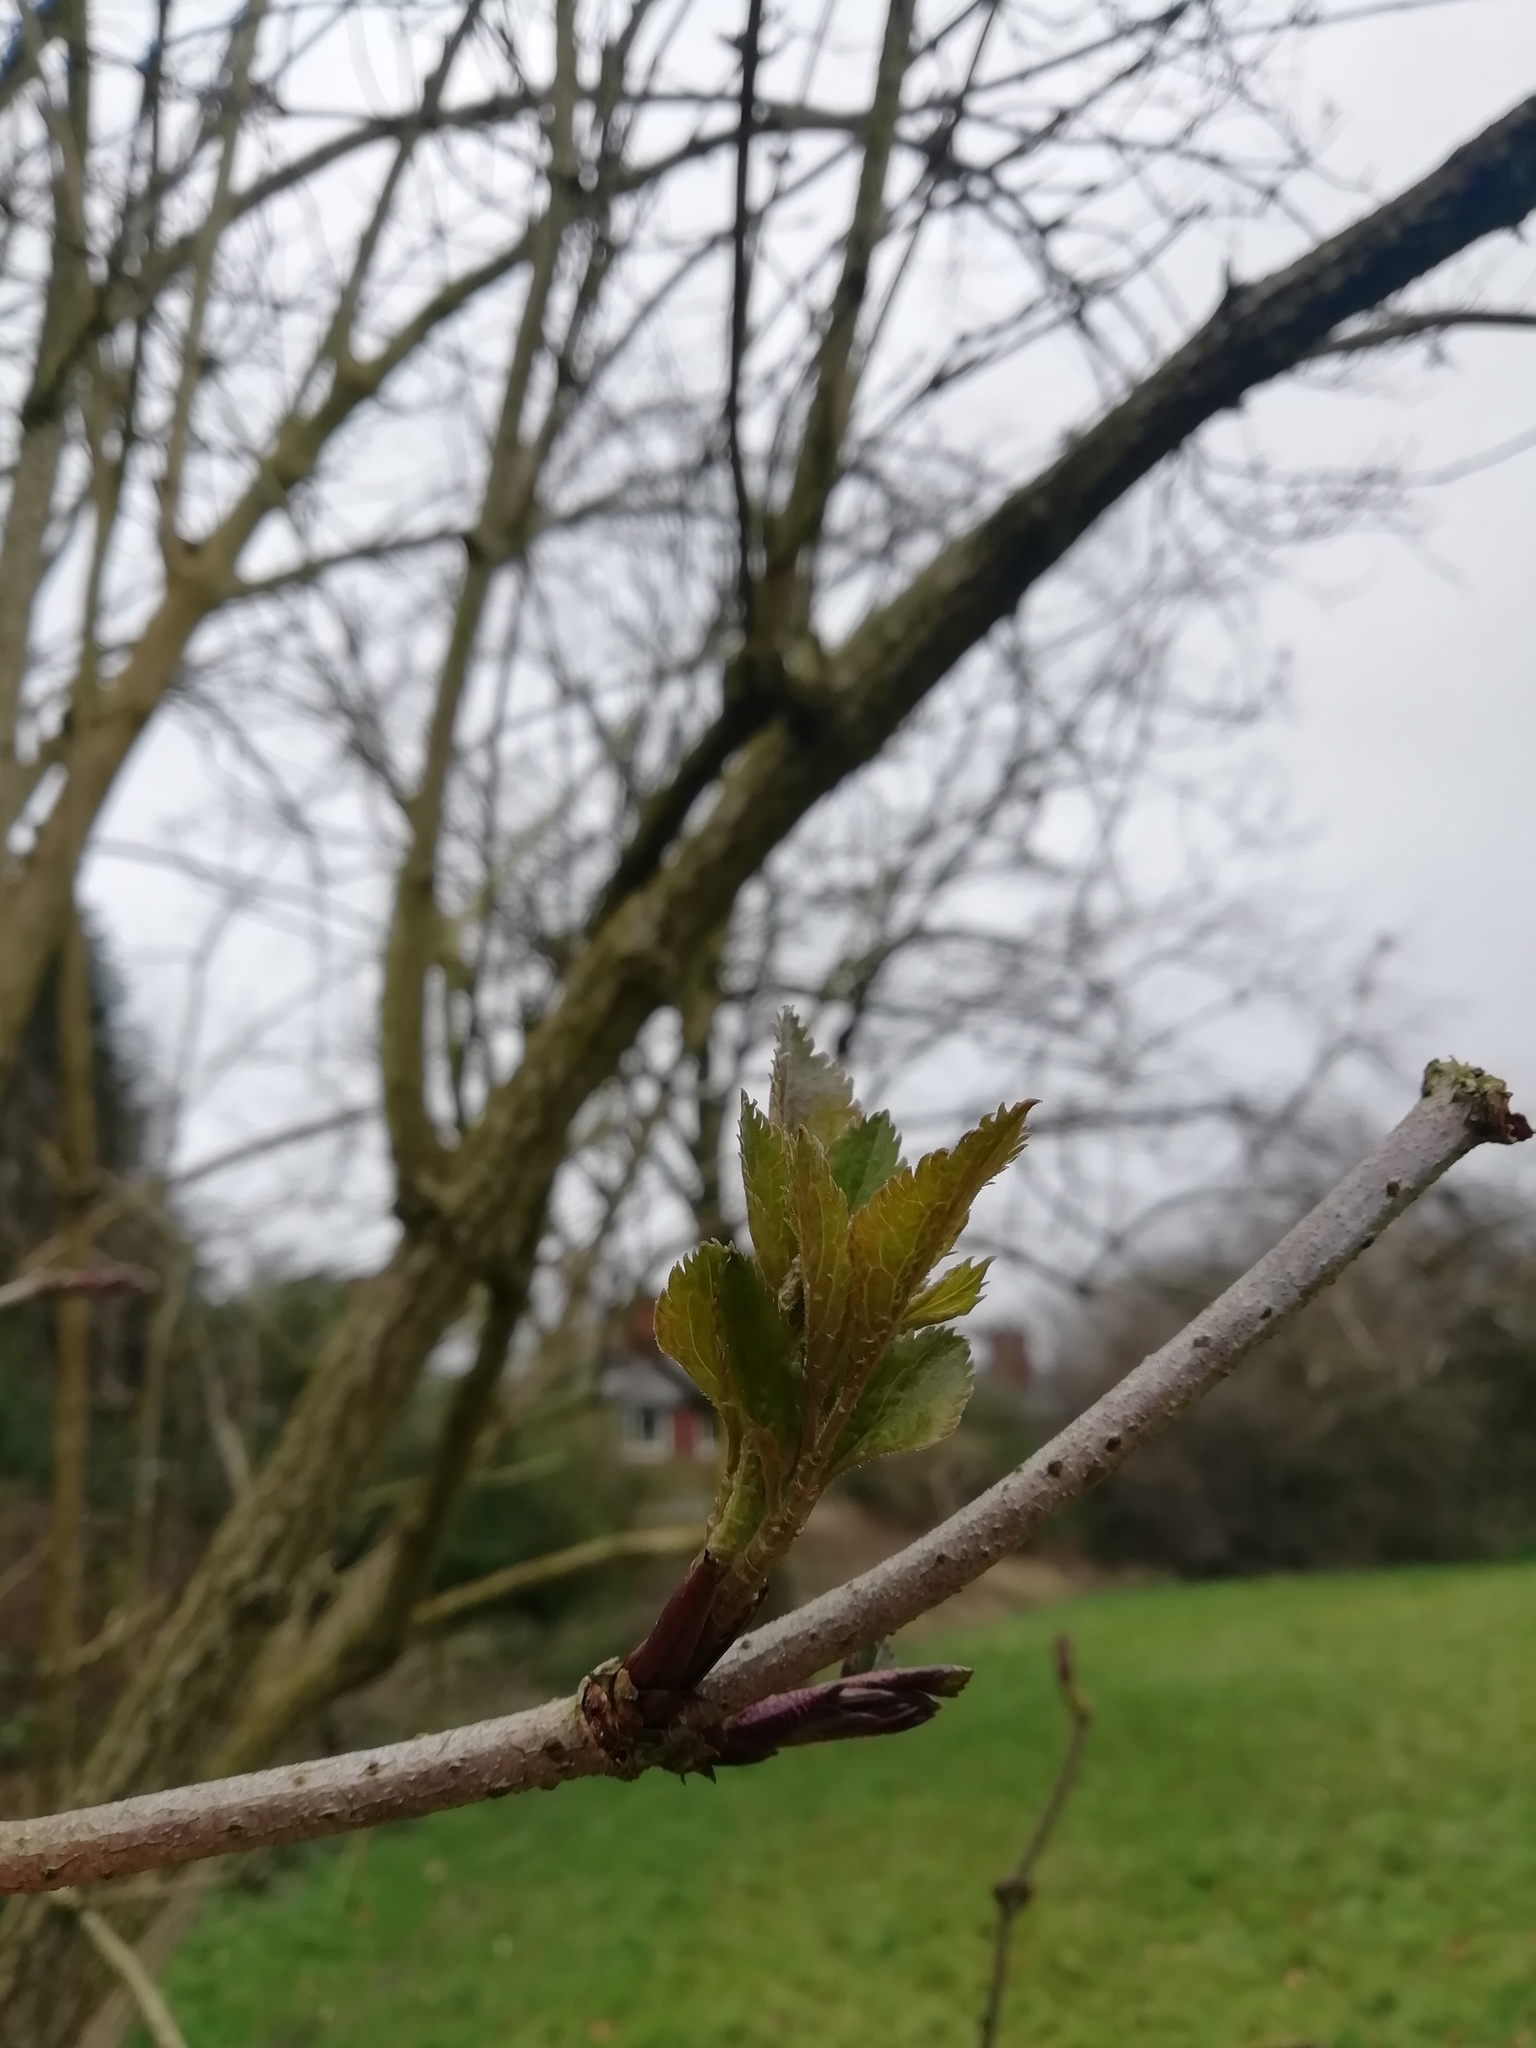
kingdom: Plantae
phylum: Tracheophyta
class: Magnoliopsida
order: Dipsacales
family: Viburnaceae
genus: Sambucus
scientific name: Sambucus nigra
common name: Elder
